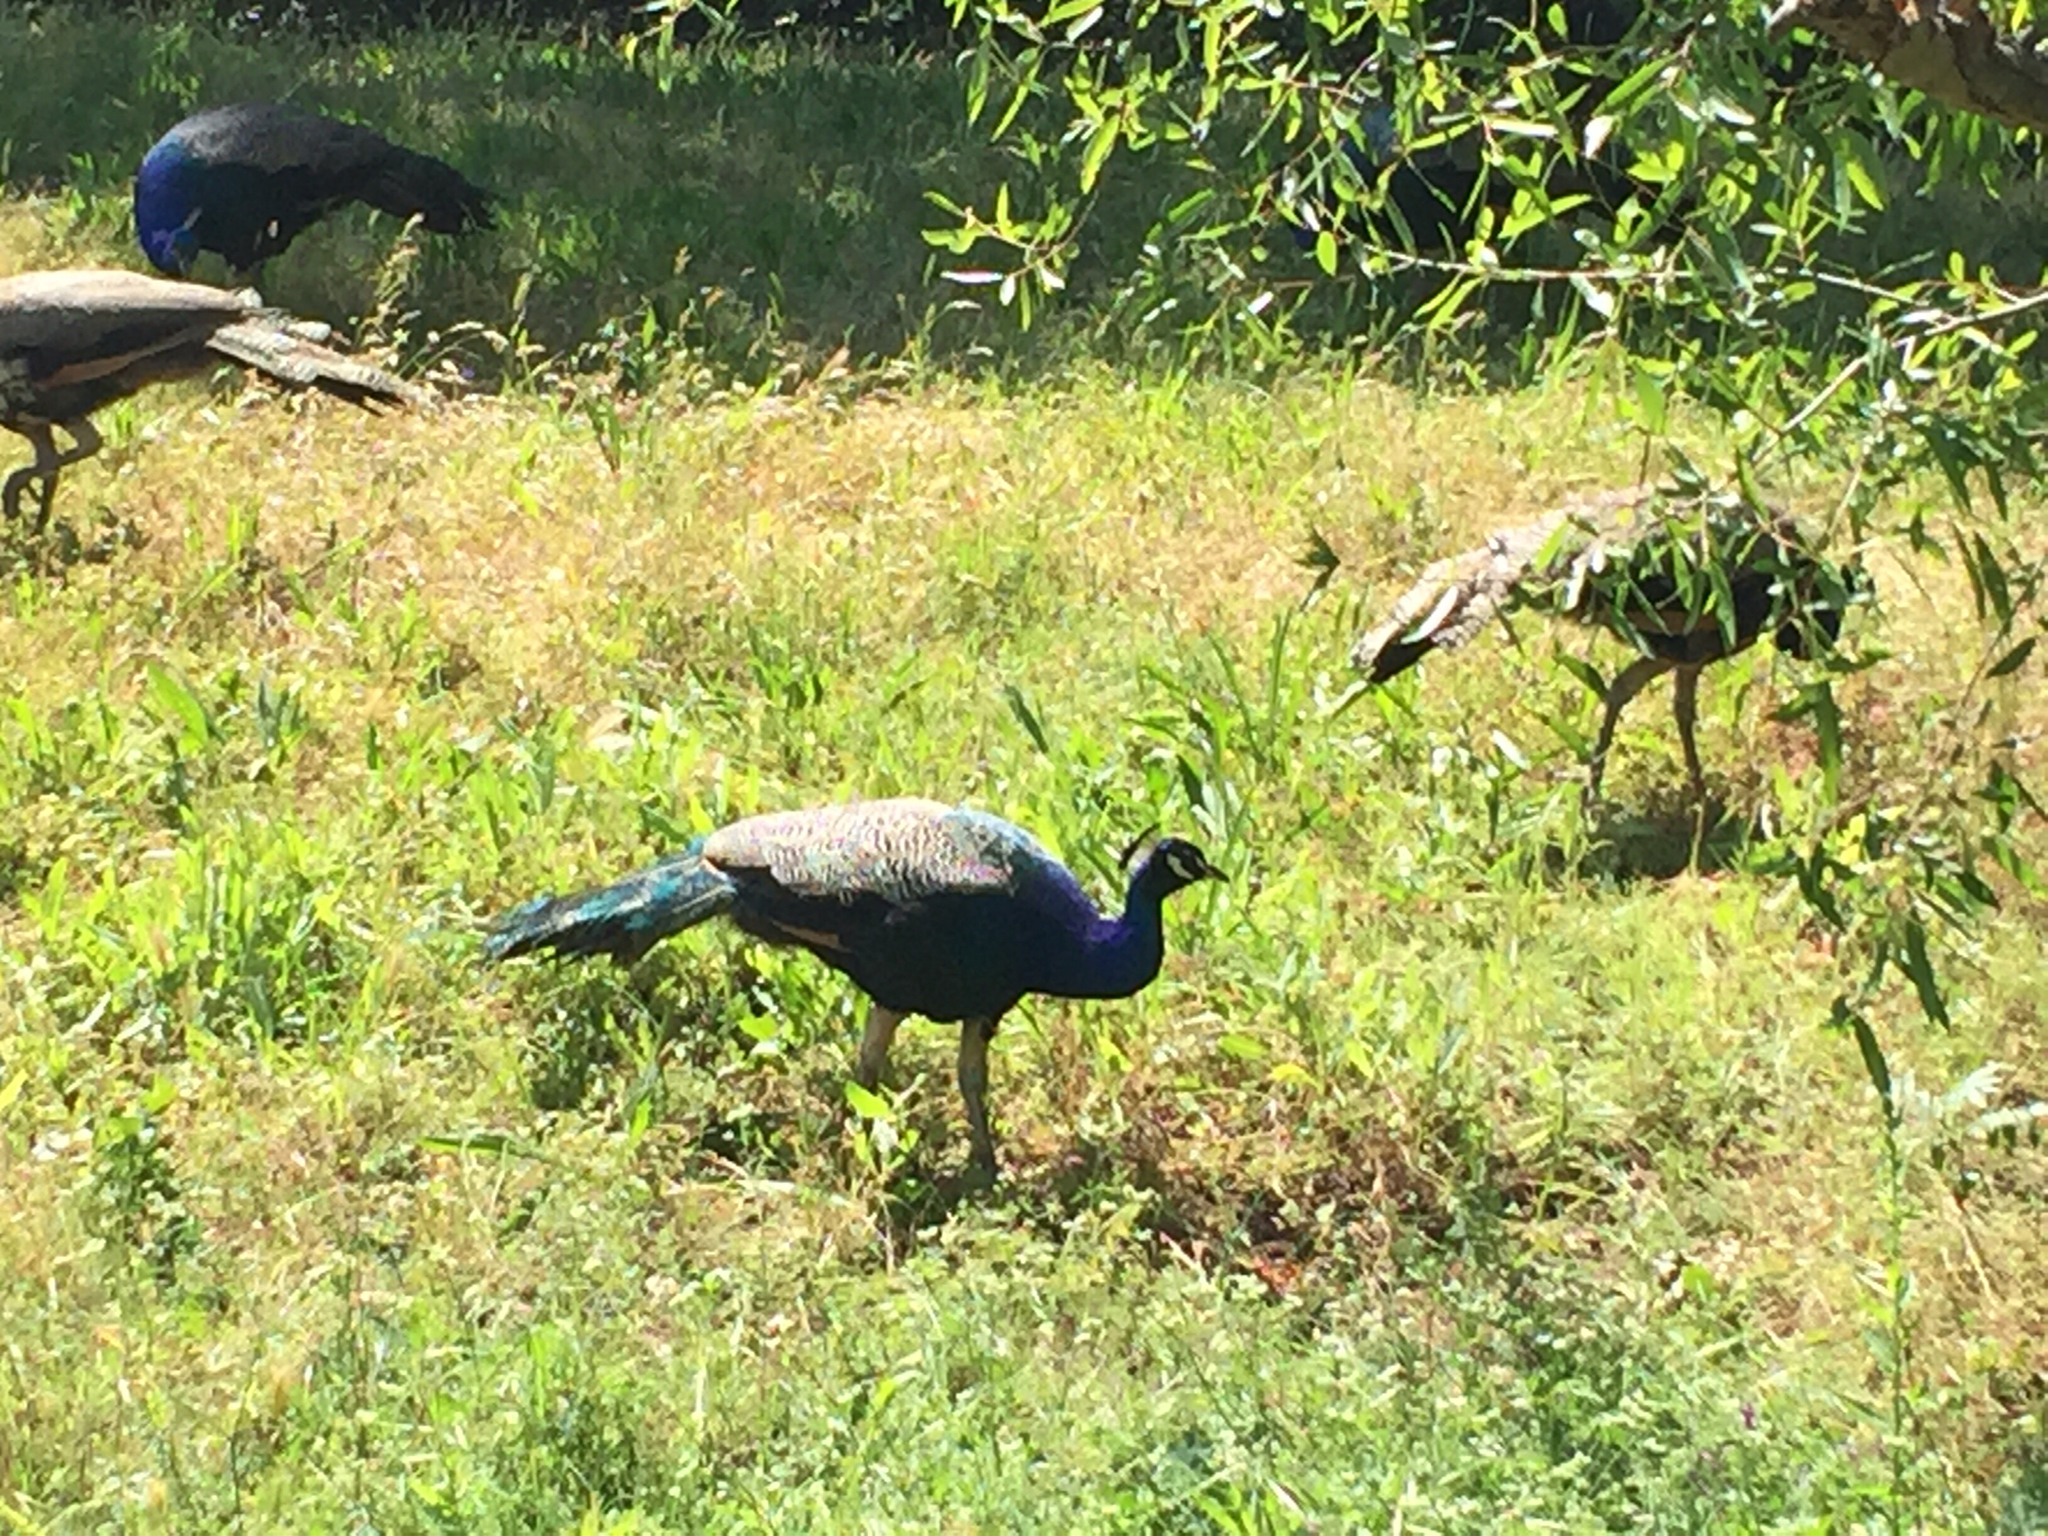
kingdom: Animalia
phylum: Chordata
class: Aves
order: Galliformes
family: Phasianidae
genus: Pavo
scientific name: Pavo cristatus
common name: Indian peafowl
